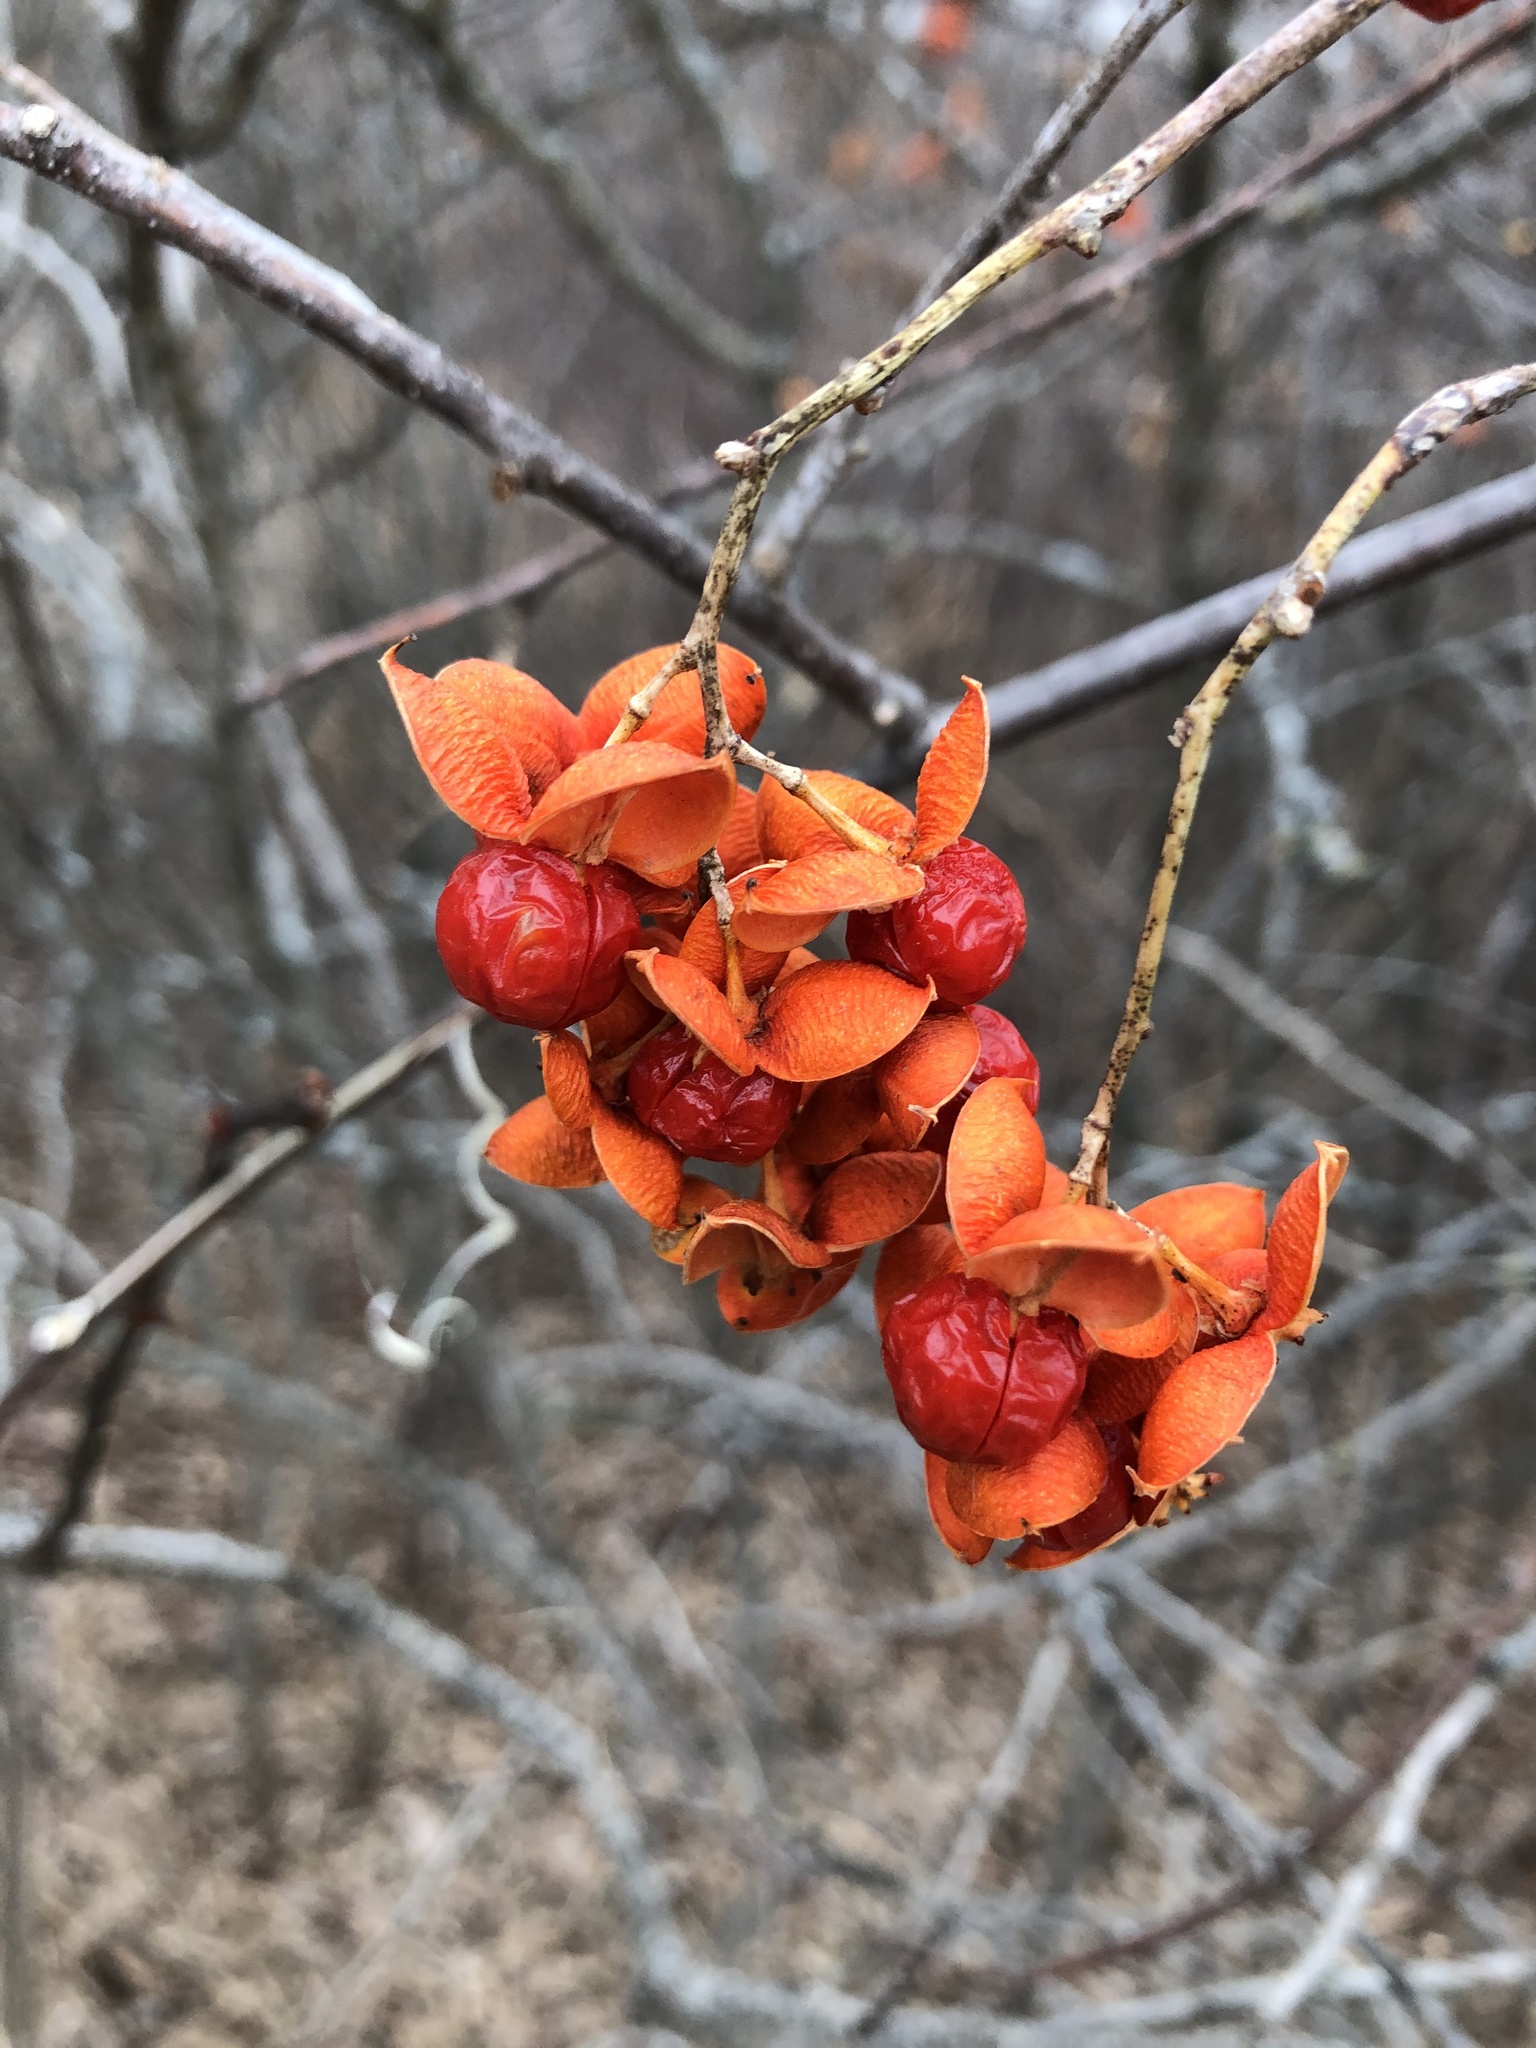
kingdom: Plantae
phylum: Tracheophyta
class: Magnoliopsida
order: Celastrales
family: Celastraceae
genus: Celastrus
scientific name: Celastrus scandens
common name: American bittersweet
